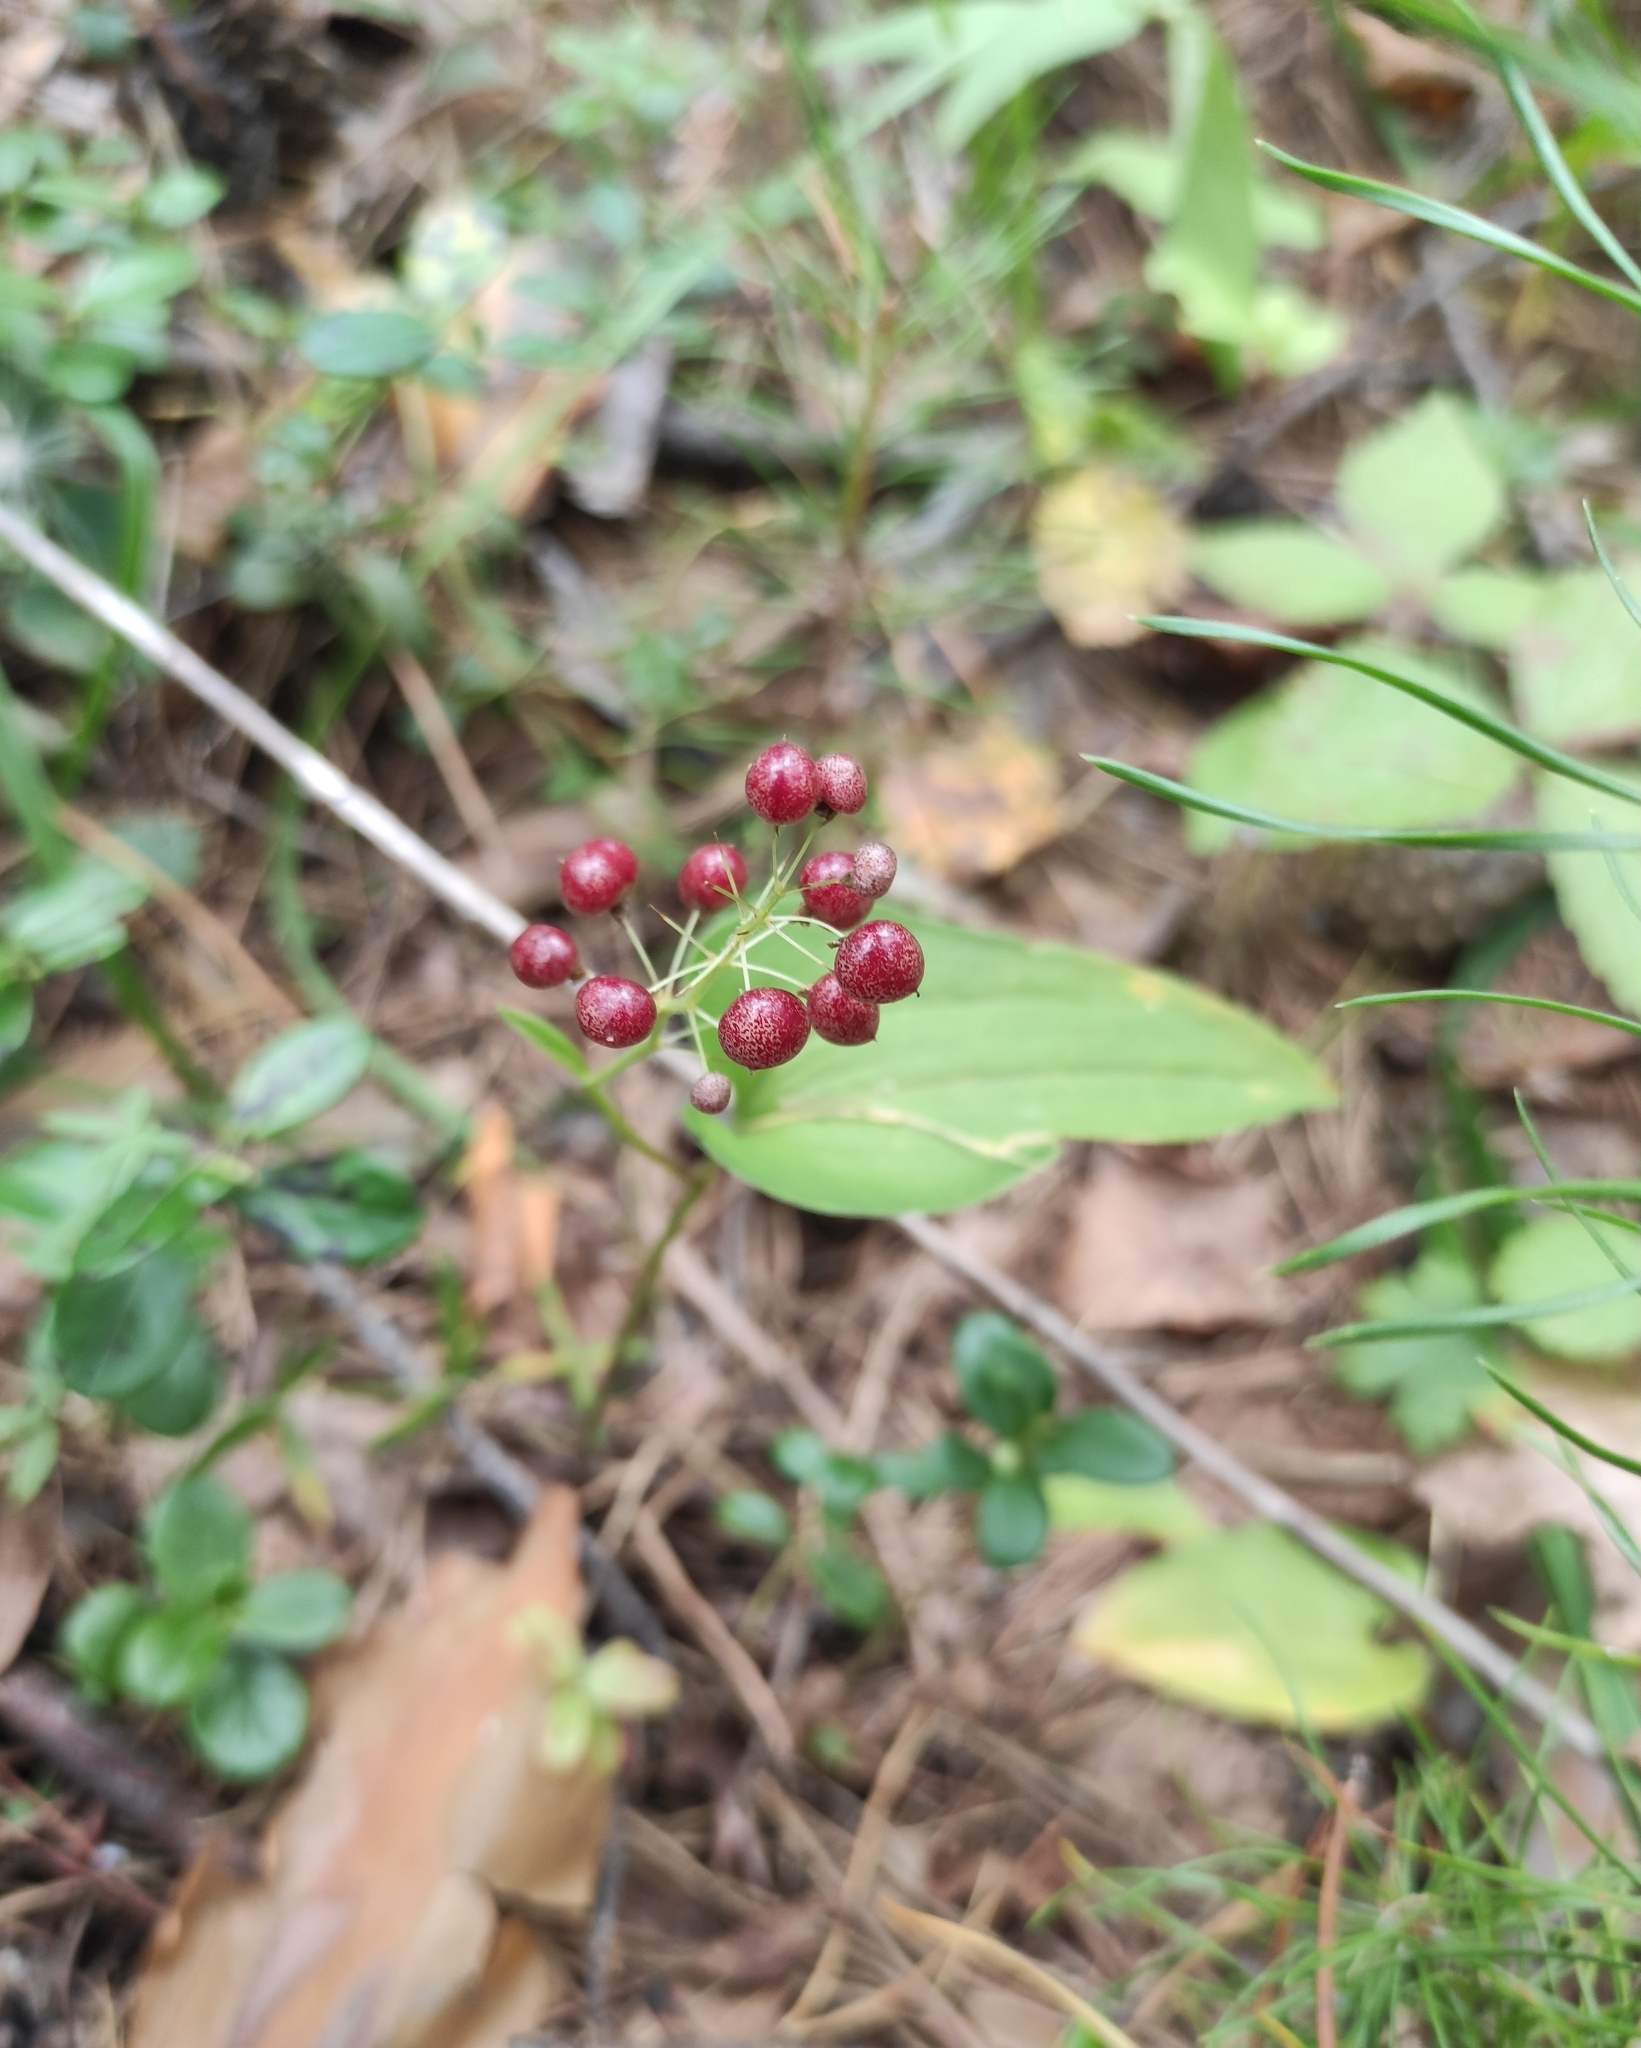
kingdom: Plantae
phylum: Tracheophyta
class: Liliopsida
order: Asparagales
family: Asparagaceae
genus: Maianthemum
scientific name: Maianthemum bifolium
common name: May lily
